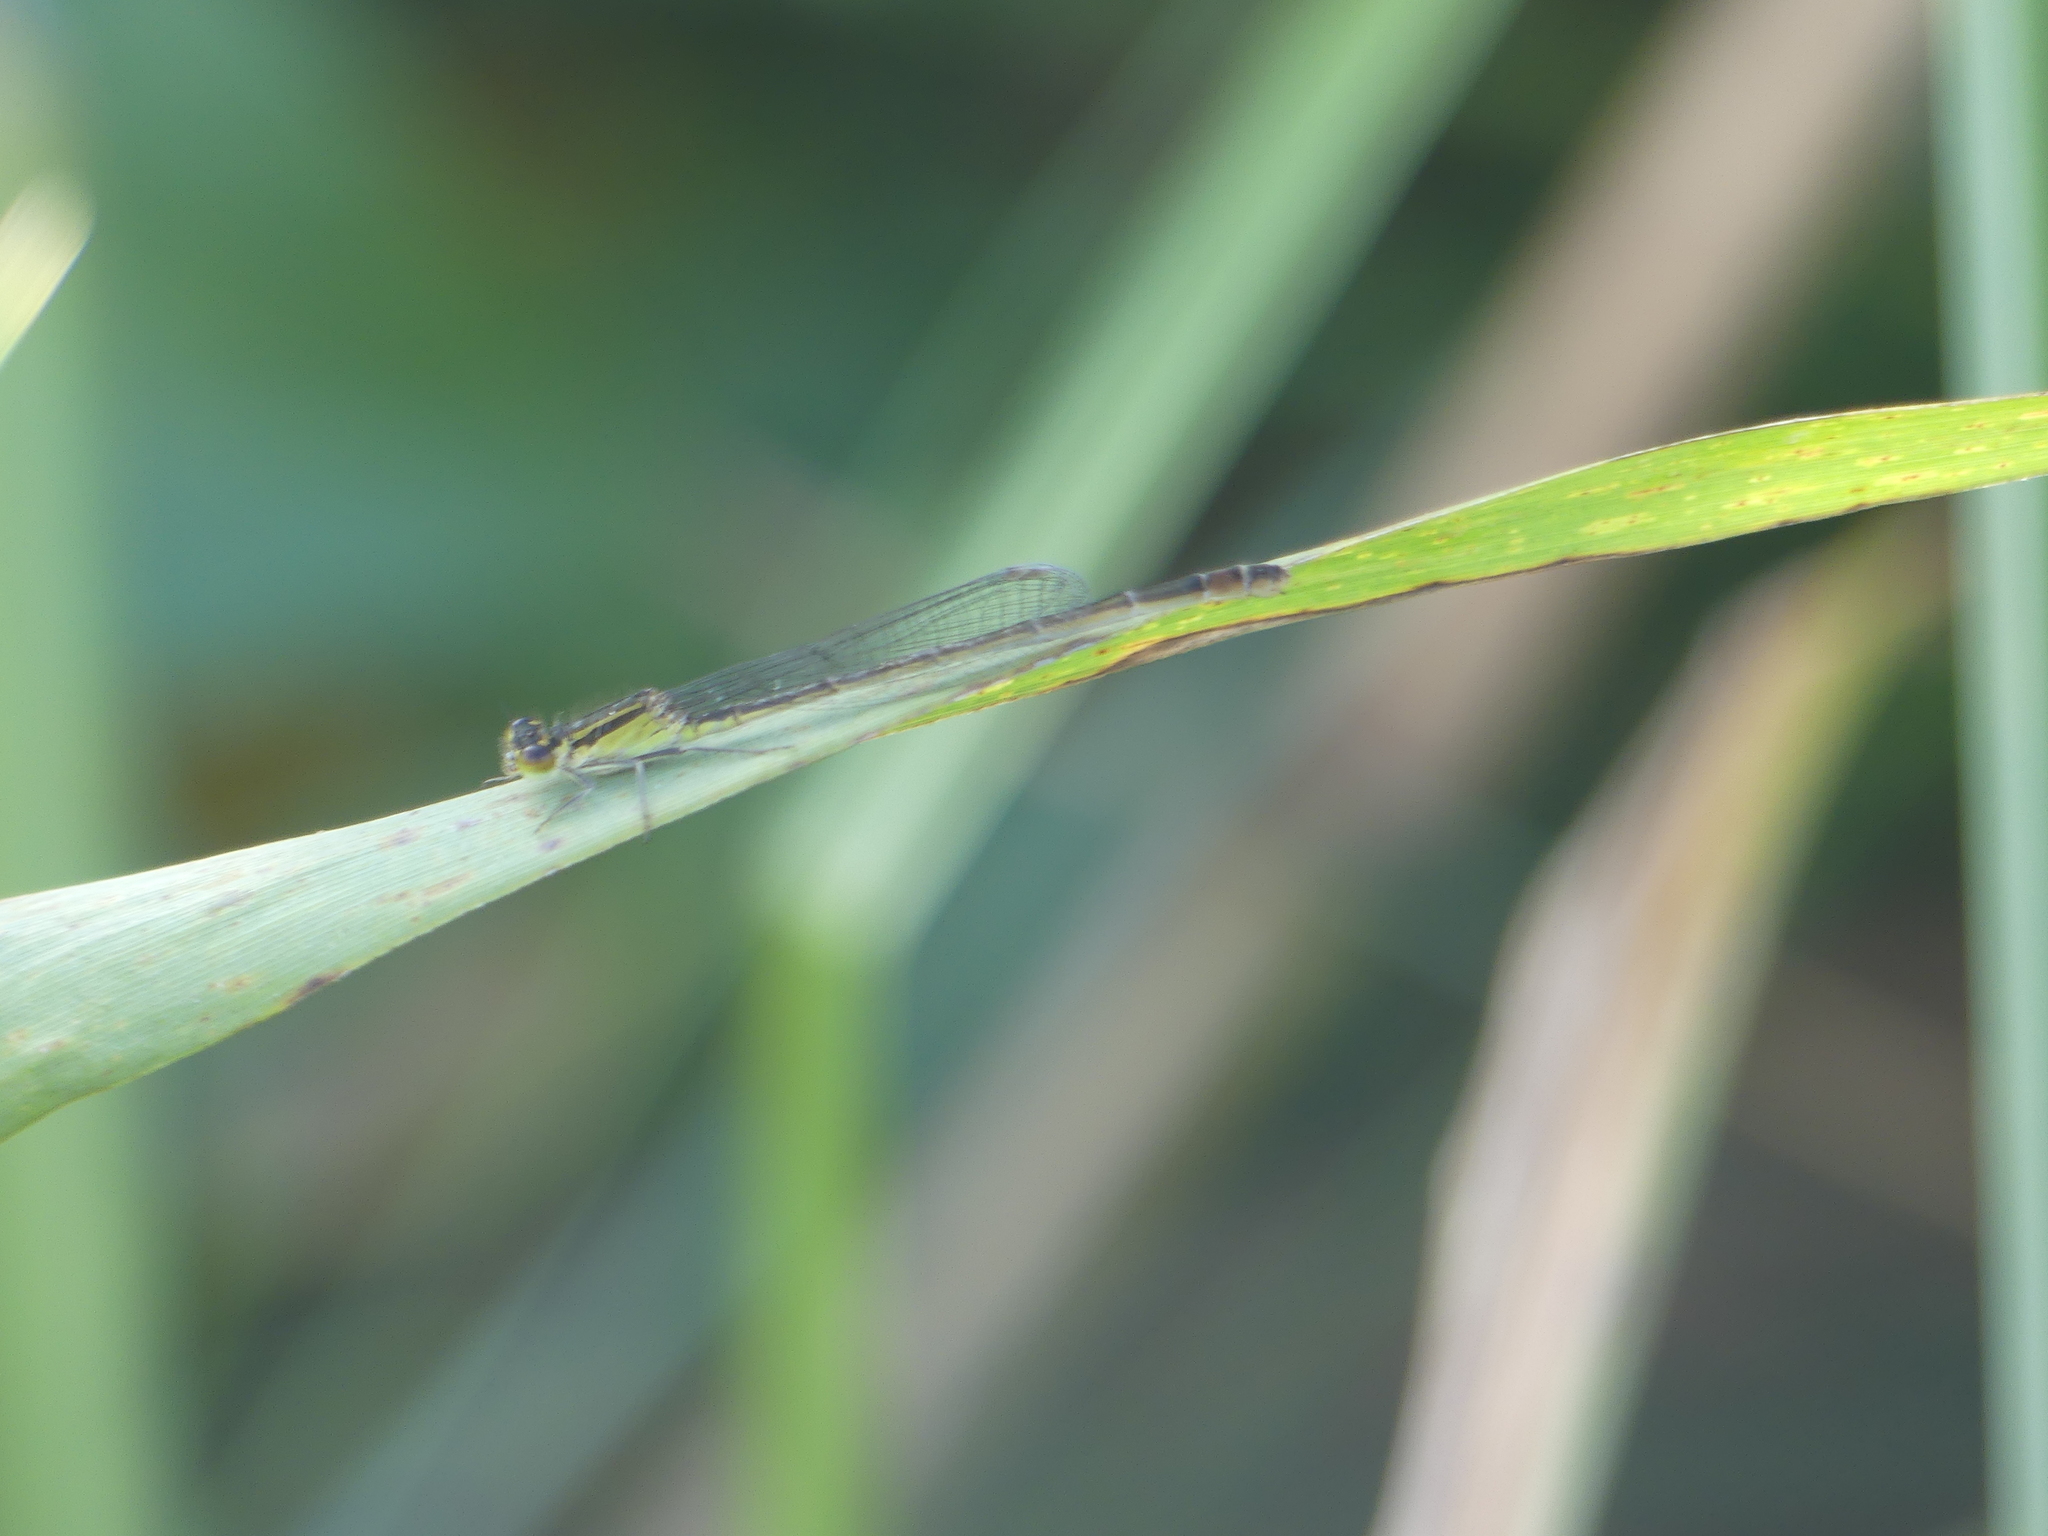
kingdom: Animalia
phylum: Arthropoda
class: Insecta
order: Odonata
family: Coenagrionidae
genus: Ischnura
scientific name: Ischnura elegans
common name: Blue-tailed damselfly
